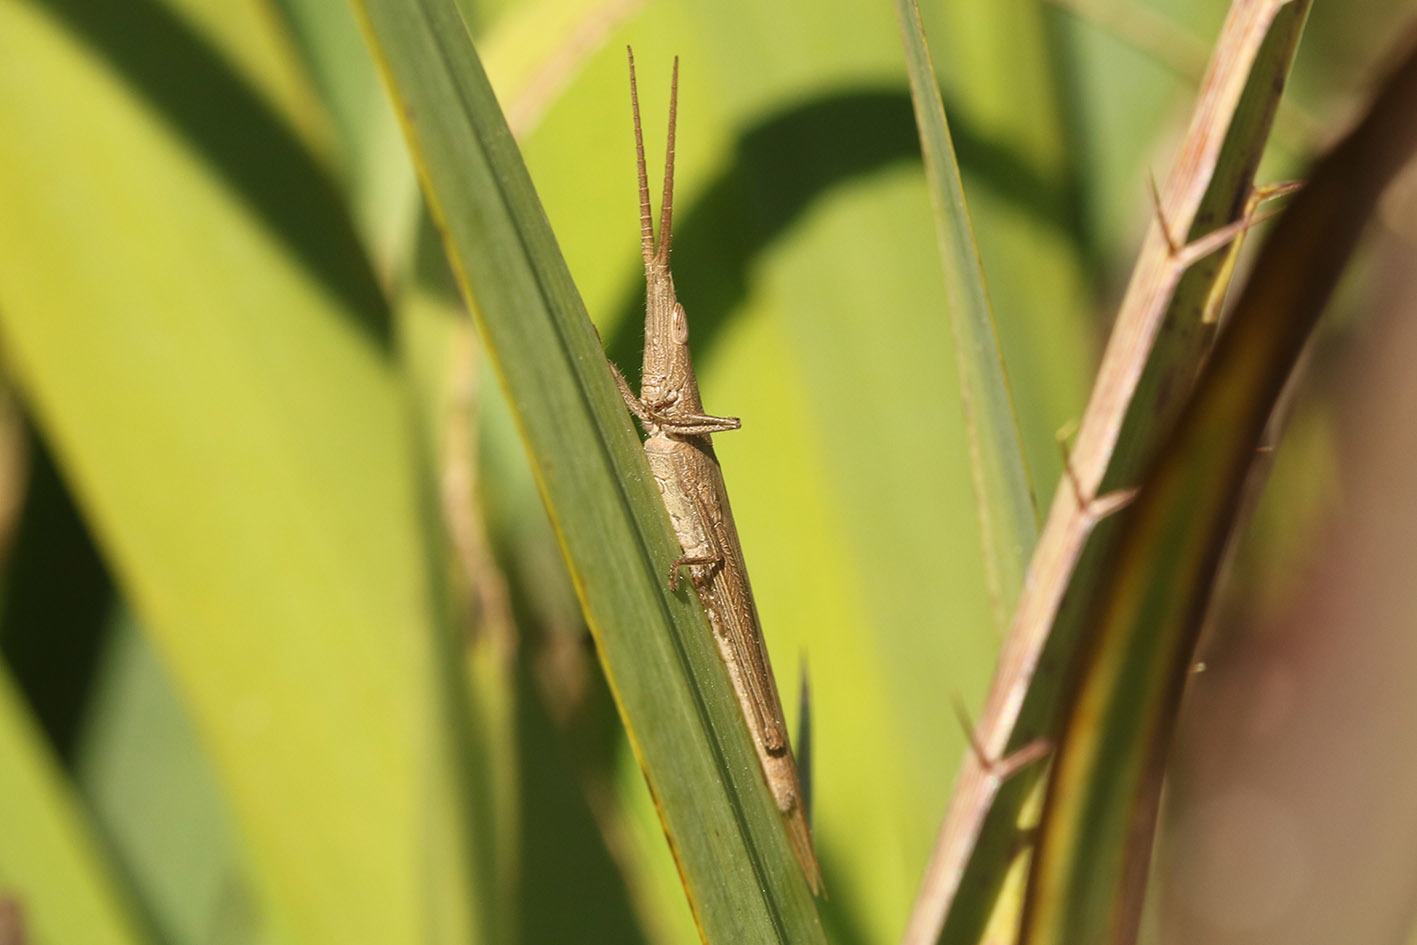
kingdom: Animalia
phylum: Arthropoda
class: Insecta
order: Orthoptera
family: Acrididae
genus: Haroldgrantia
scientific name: Haroldgrantia lignosa
